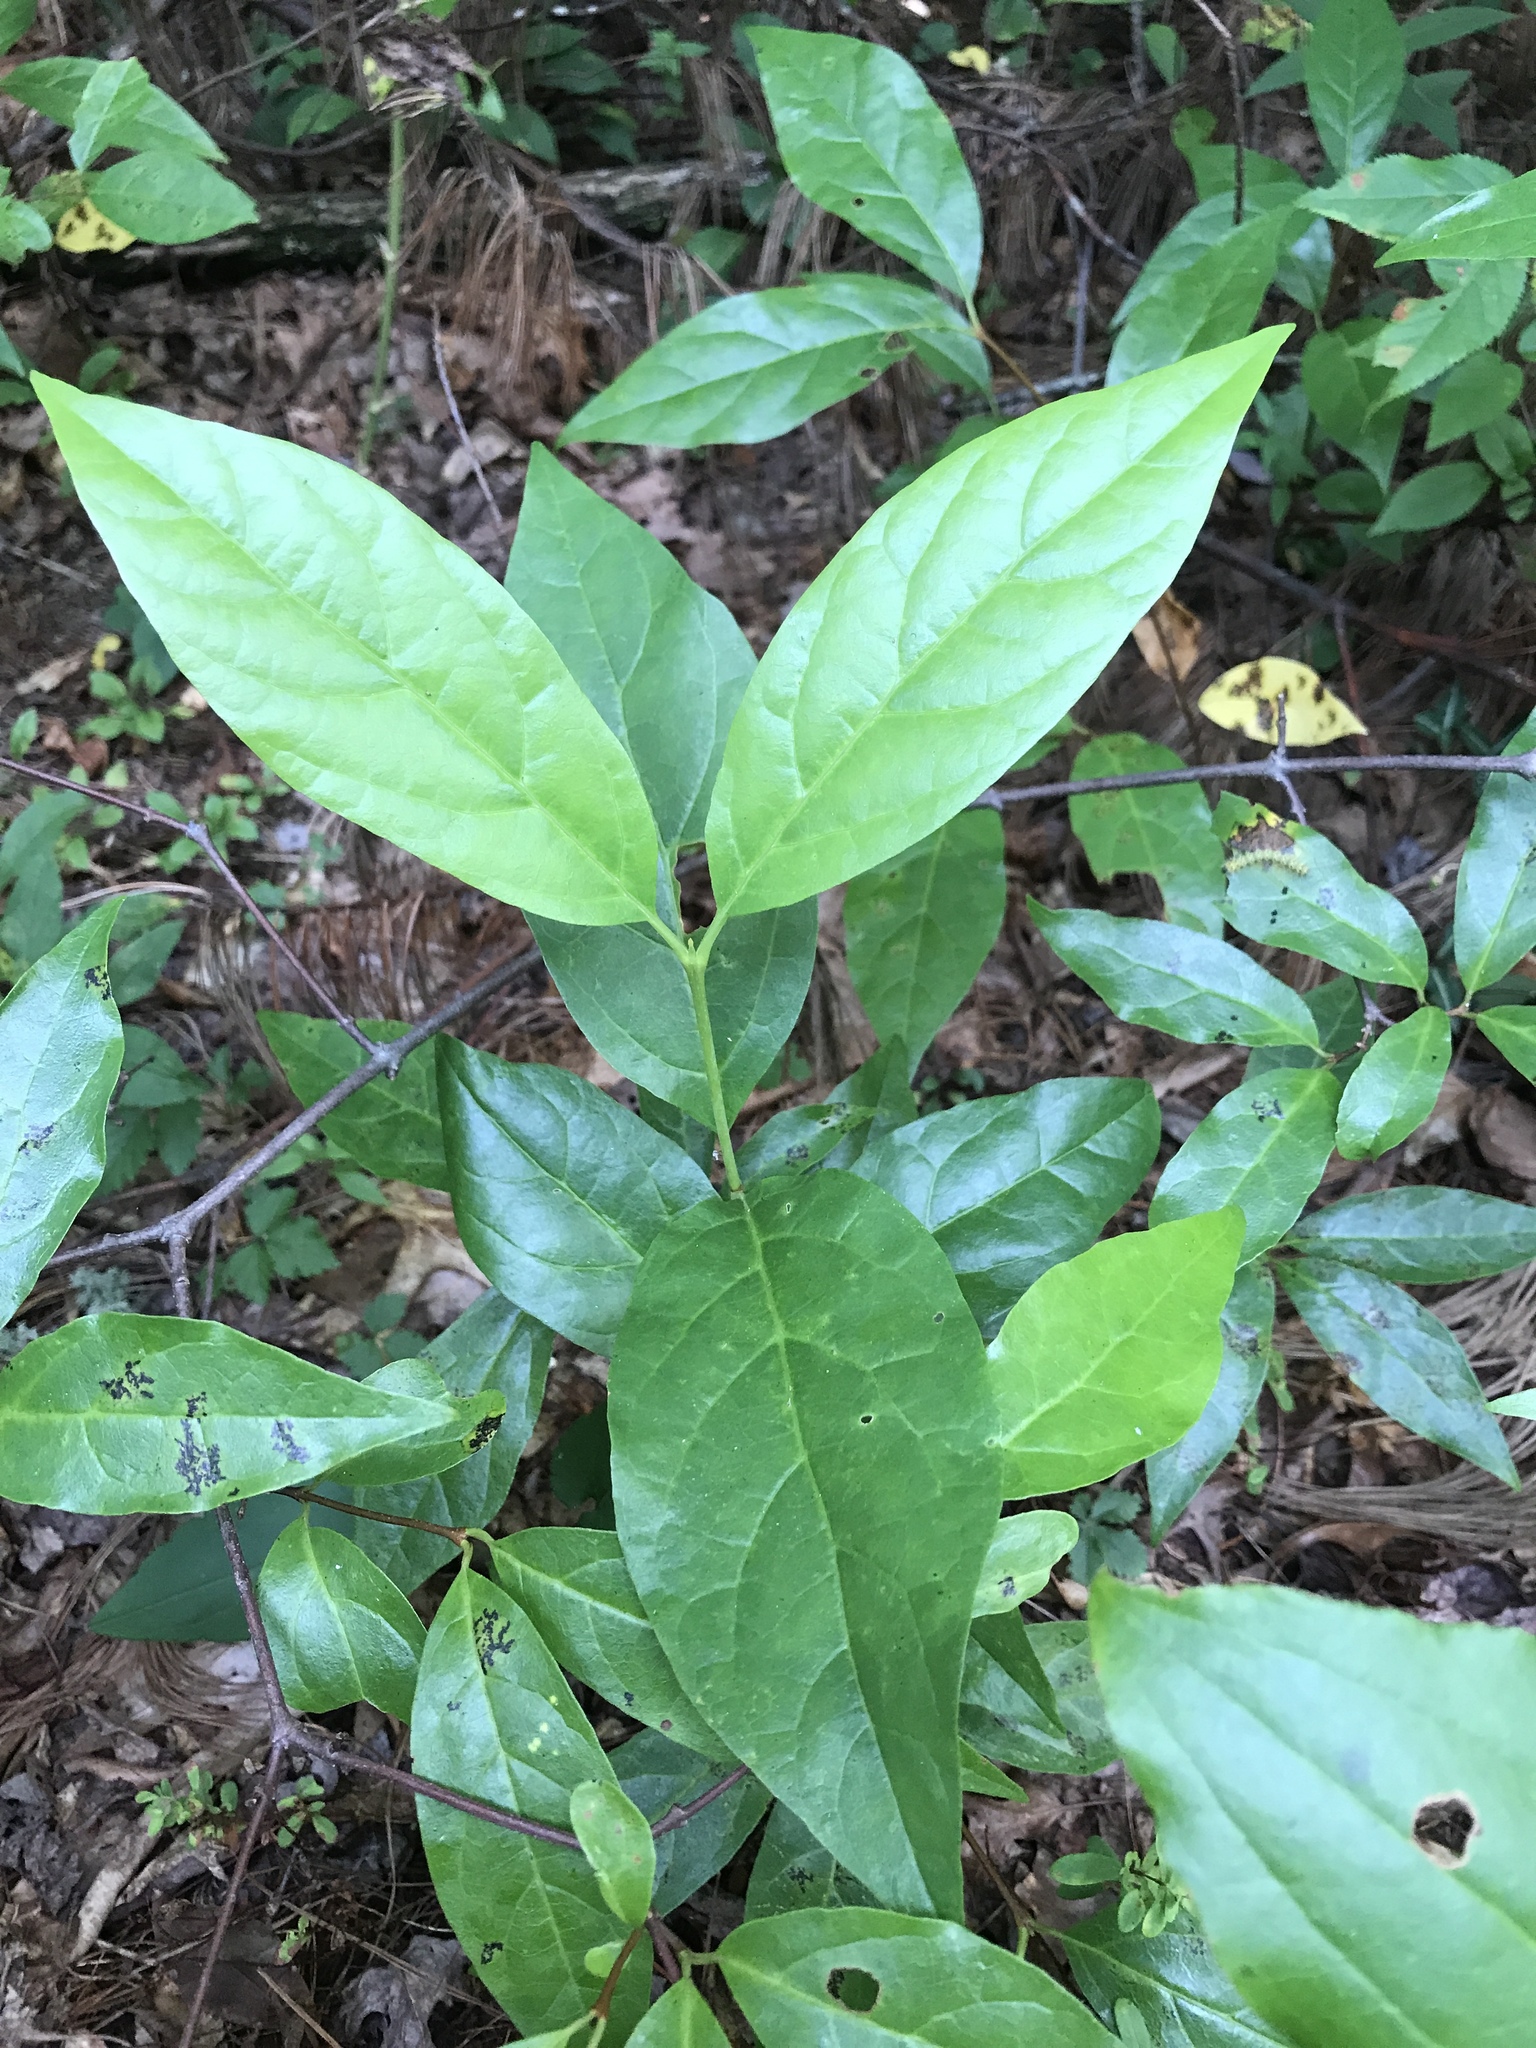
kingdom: Plantae
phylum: Tracheophyta
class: Magnoliopsida
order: Laurales
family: Calycanthaceae
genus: Calycanthus
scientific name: Calycanthus floridus
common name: Carolina-allspice
